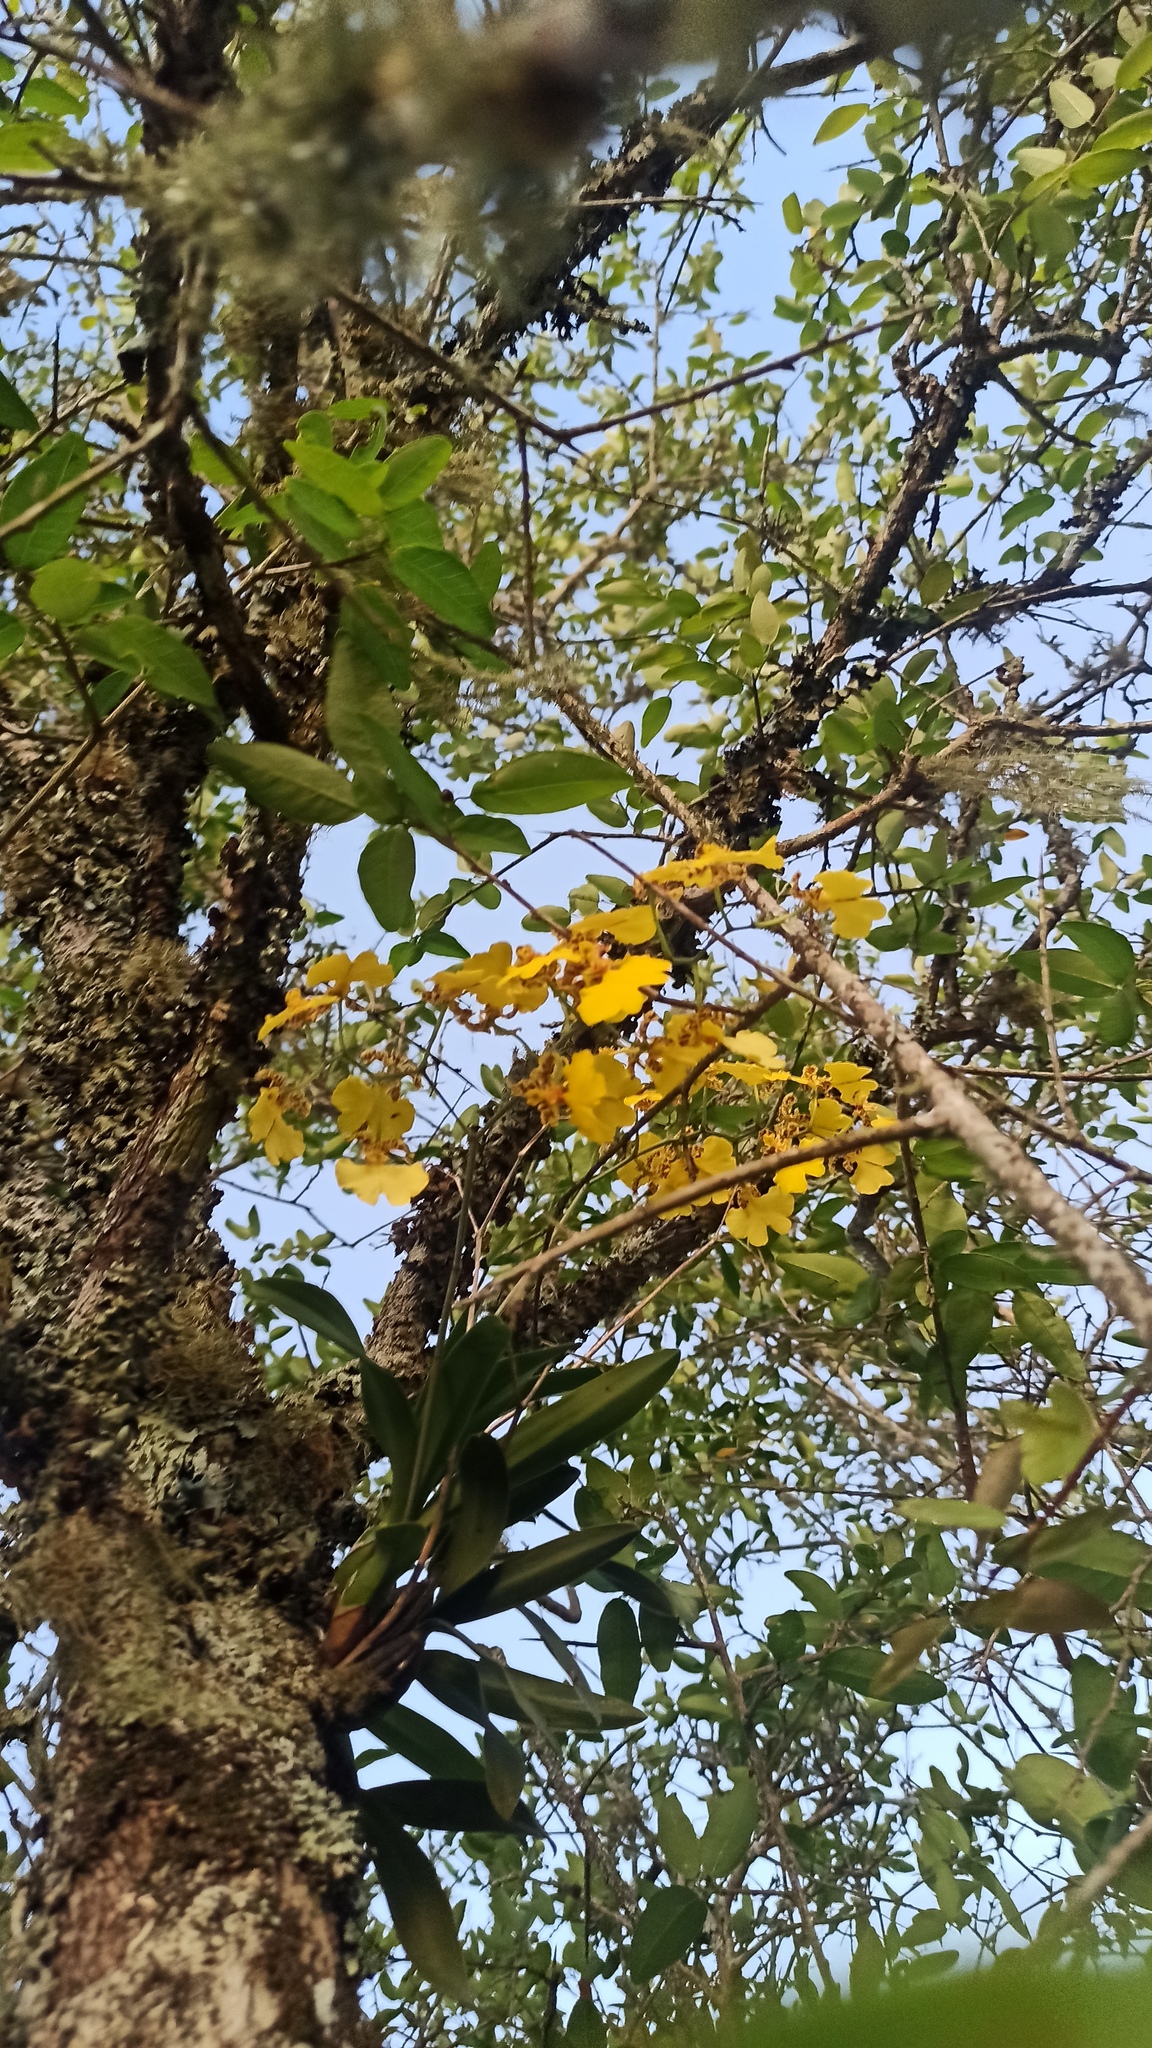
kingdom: Plantae
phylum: Tracheophyta
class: Liliopsida
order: Asparagales
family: Orchidaceae
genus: Gomesa
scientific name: Gomesa bifolia
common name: Dancing ladies
